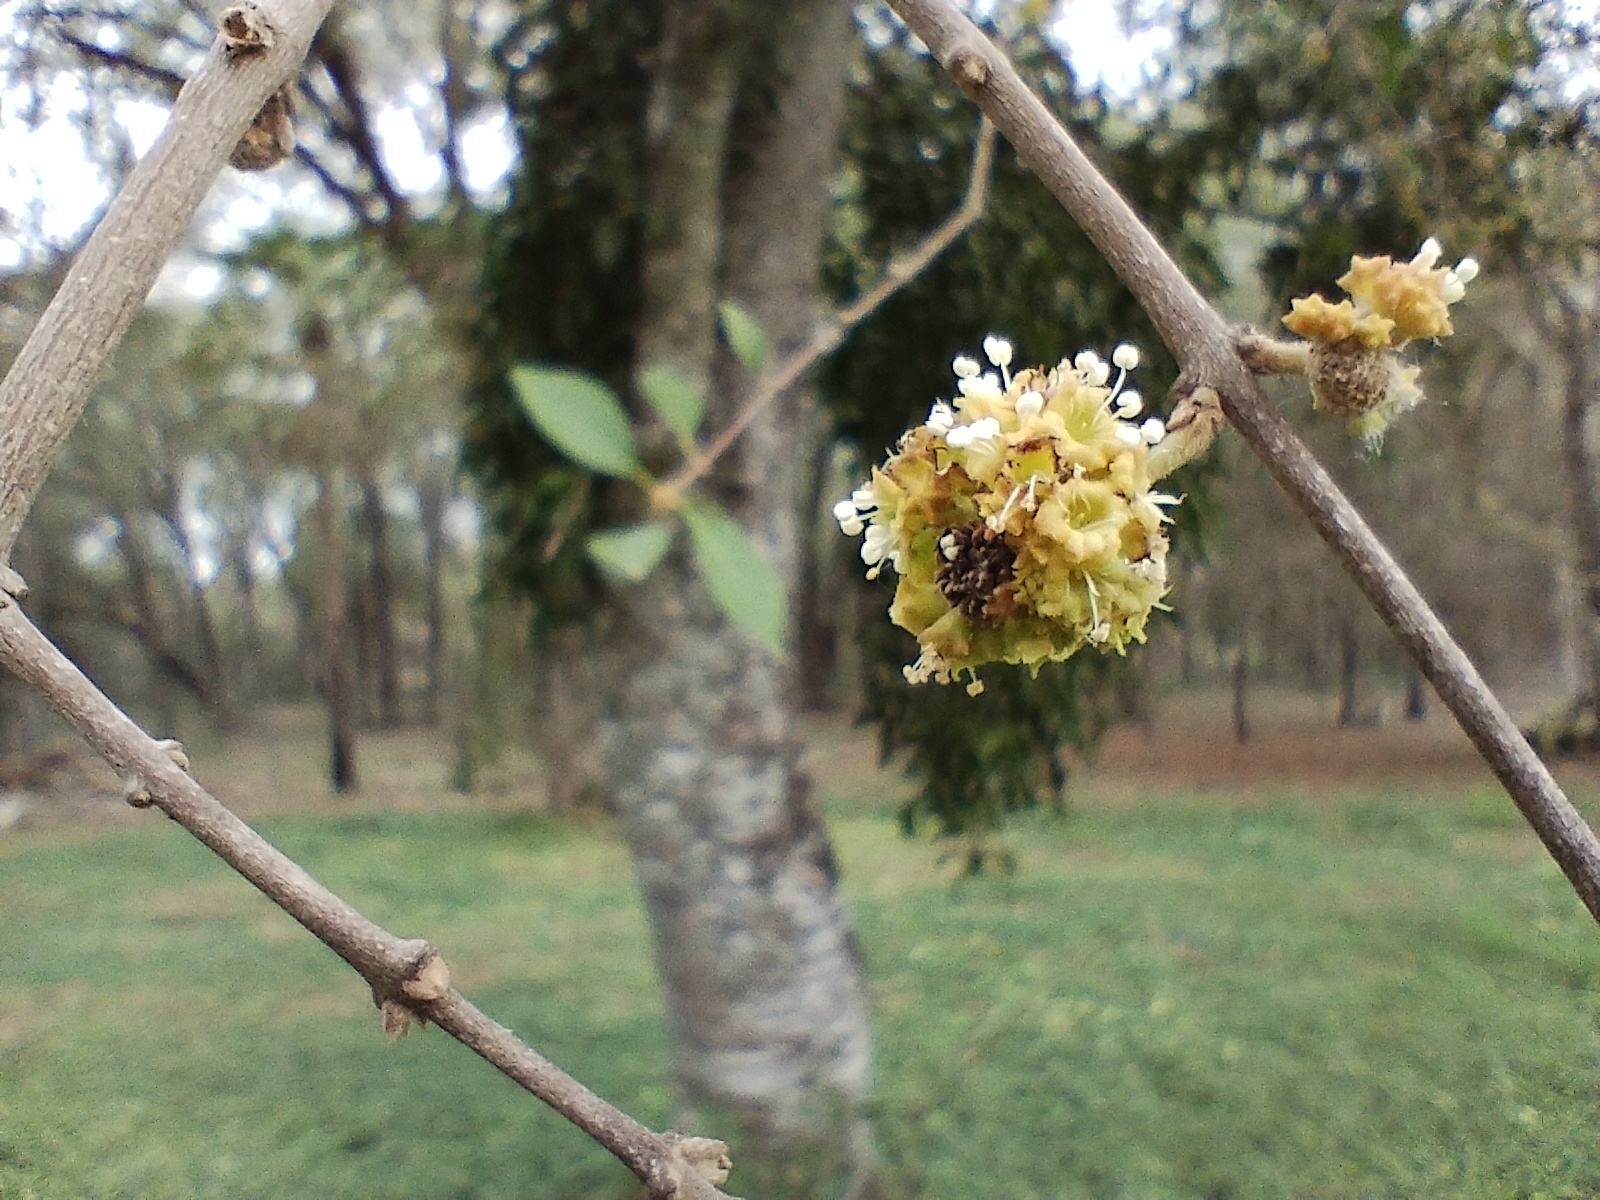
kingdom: Plantae
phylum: Tracheophyta
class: Magnoliopsida
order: Caryophyllales
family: Nyctaginaceae
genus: Pisonia
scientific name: Pisonia zapallo
